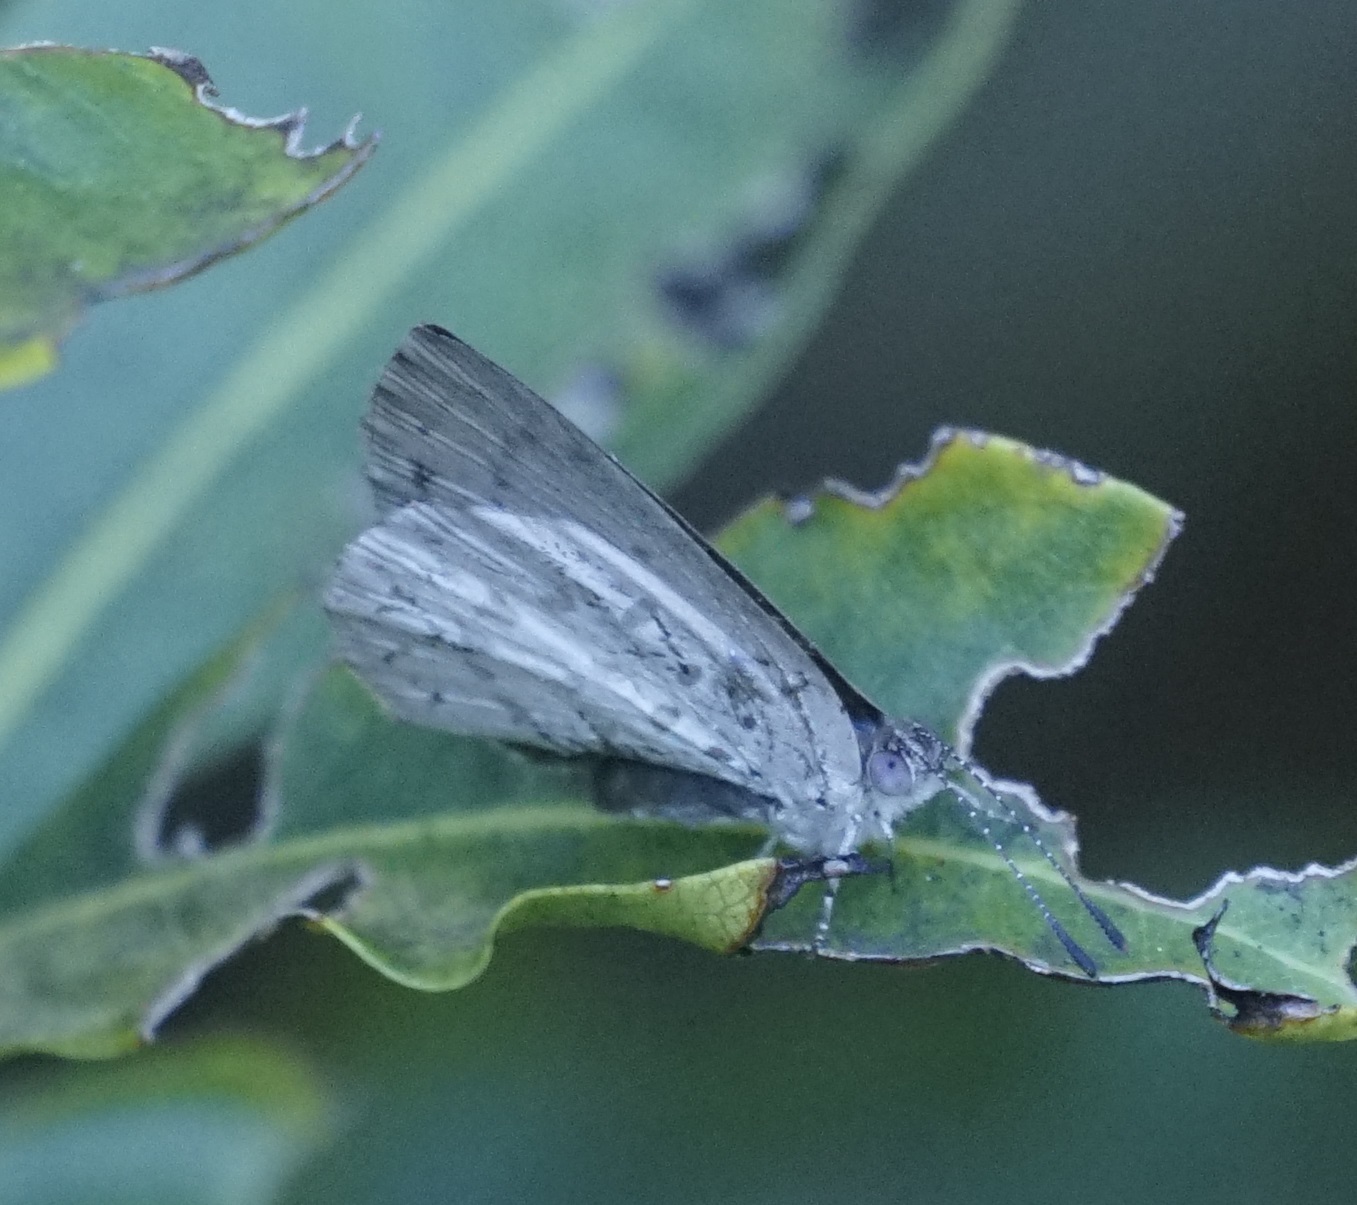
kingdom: Animalia
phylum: Arthropoda
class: Insecta
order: Lepidoptera
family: Lycaenidae
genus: Candalides
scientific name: Candalides
